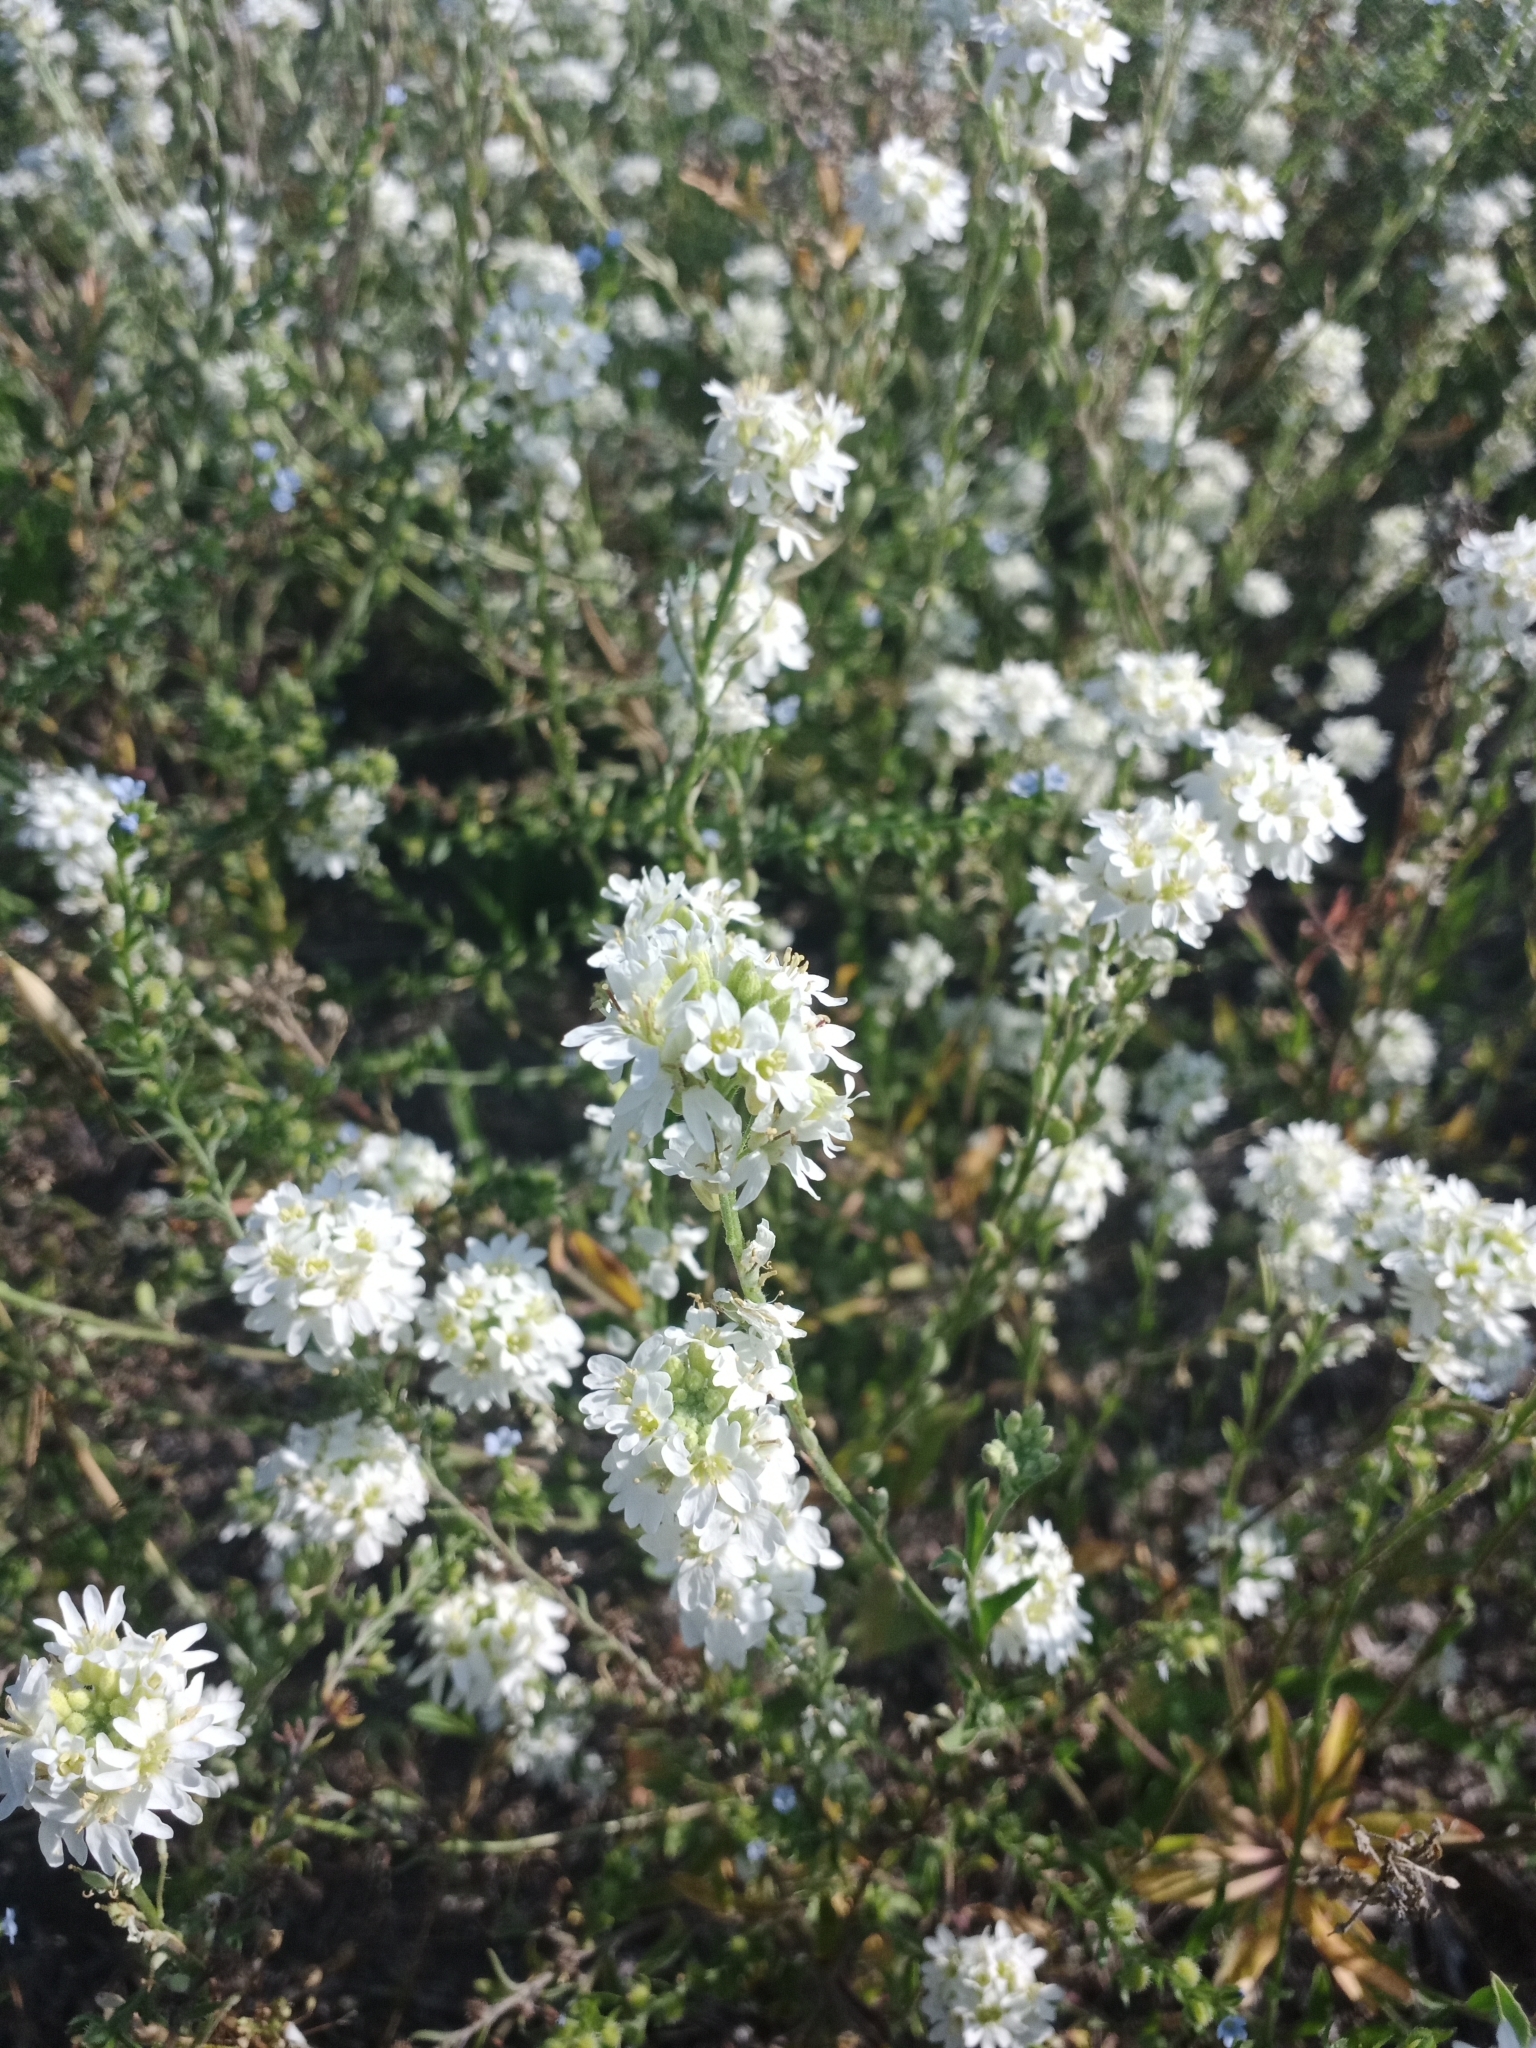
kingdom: Plantae
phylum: Tracheophyta
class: Magnoliopsida
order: Brassicales
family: Brassicaceae
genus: Berteroa
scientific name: Berteroa incana
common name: Hoary alison
